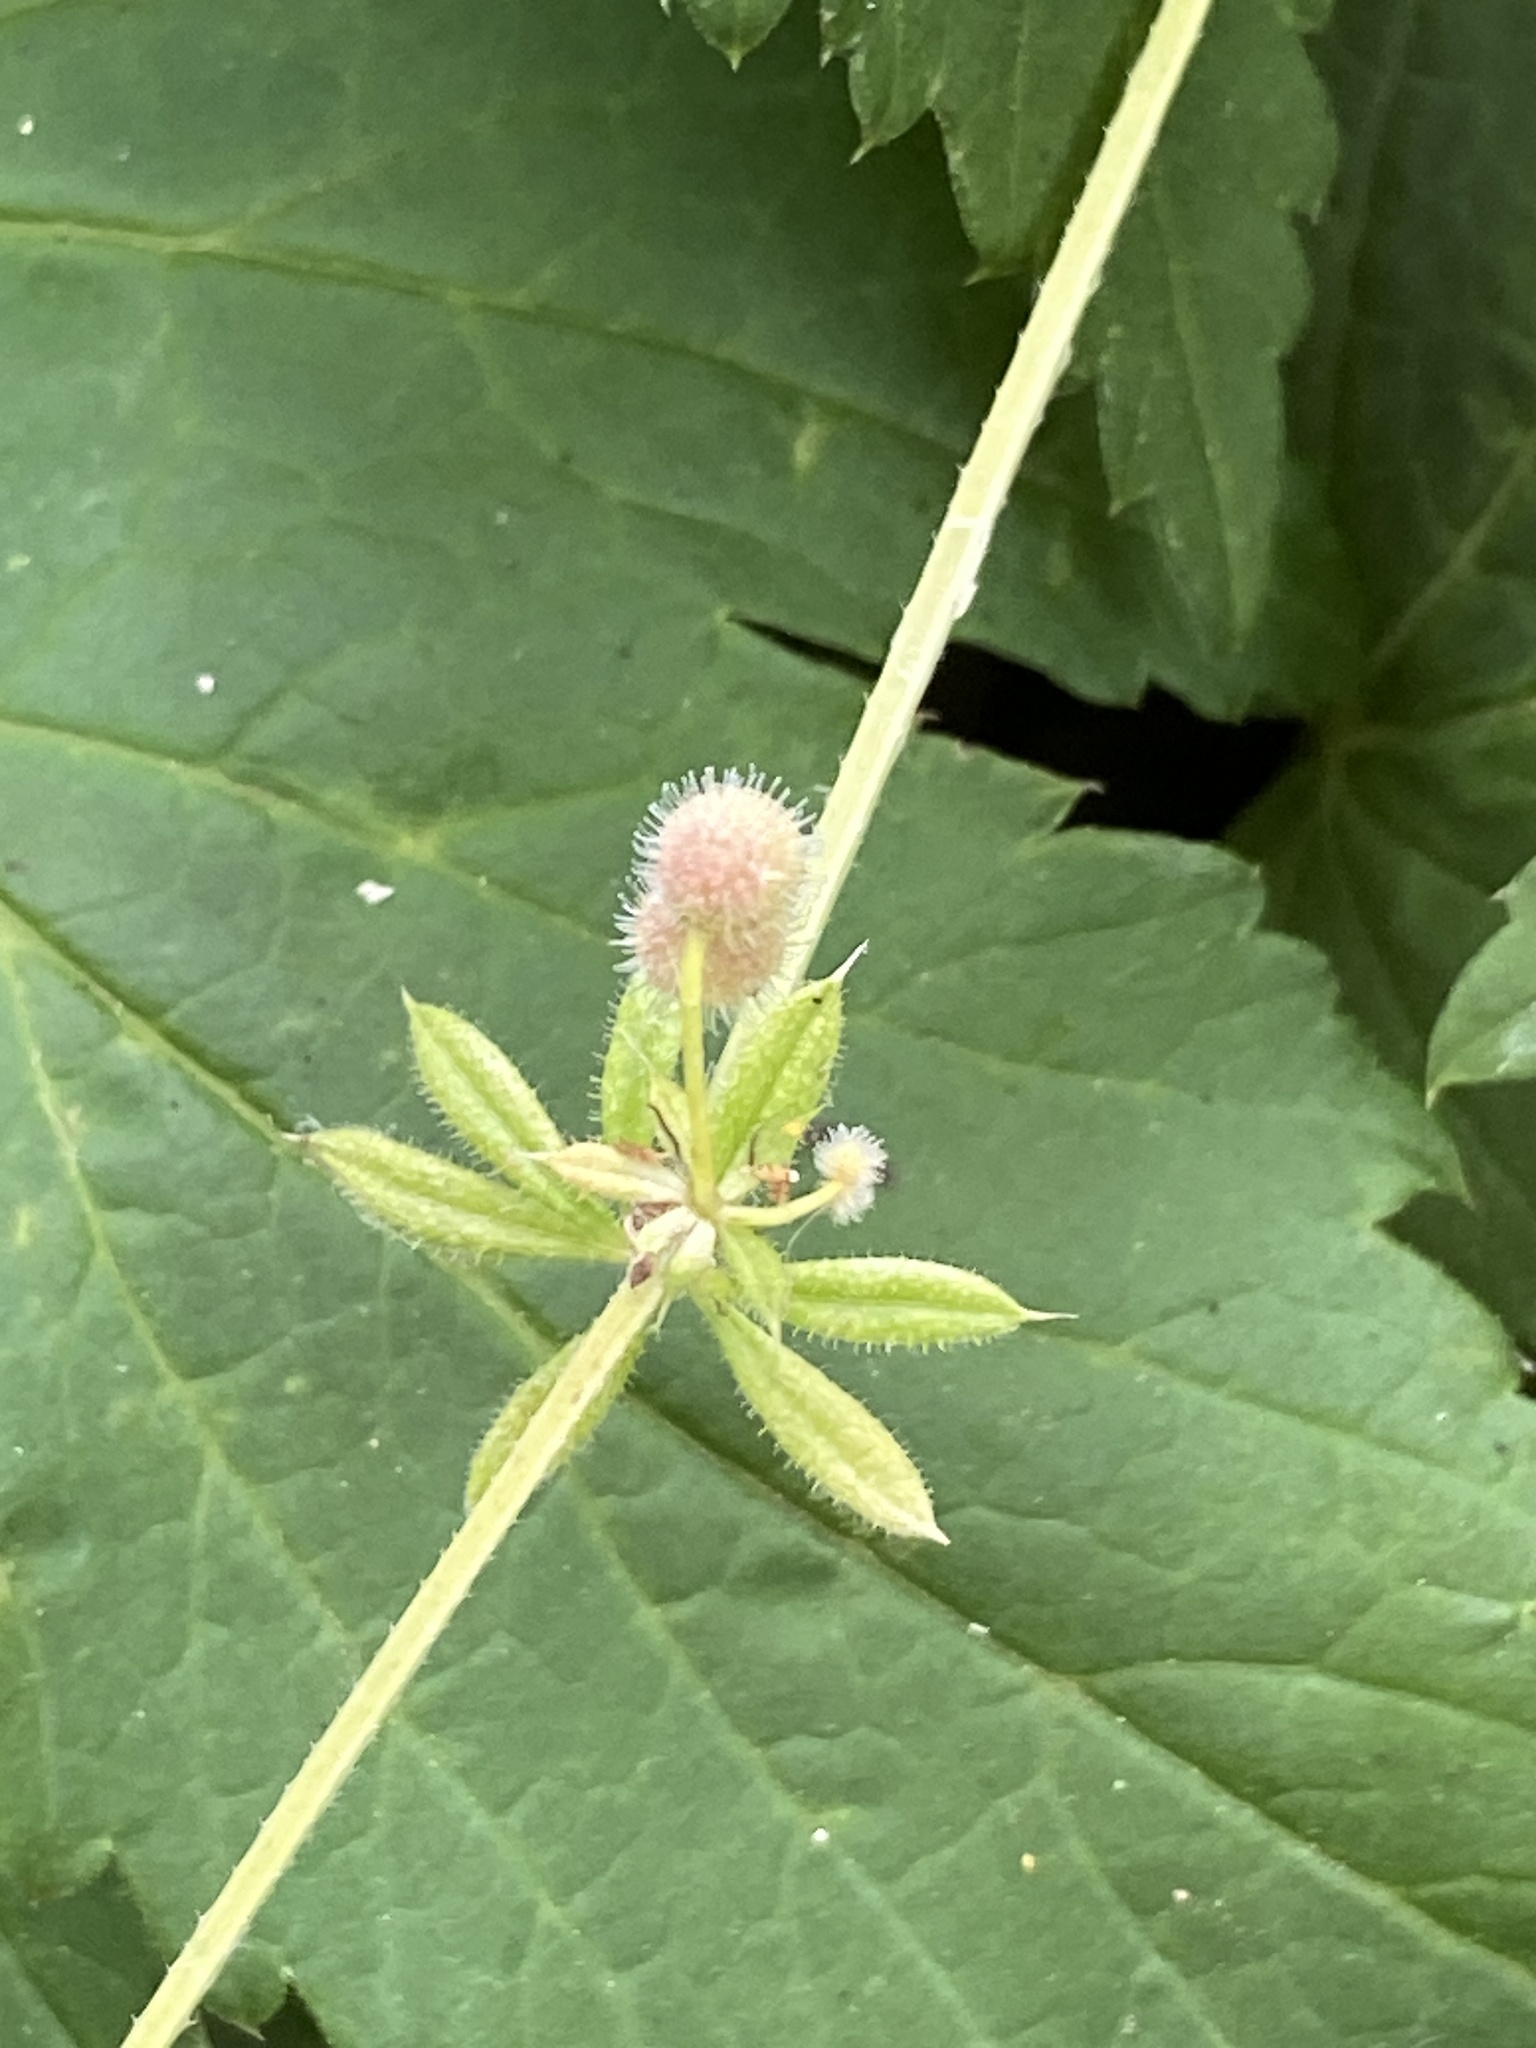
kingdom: Plantae
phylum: Tracheophyta
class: Magnoliopsida
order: Gentianales
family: Rubiaceae
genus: Galium
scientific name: Galium aparine
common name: Cleavers
